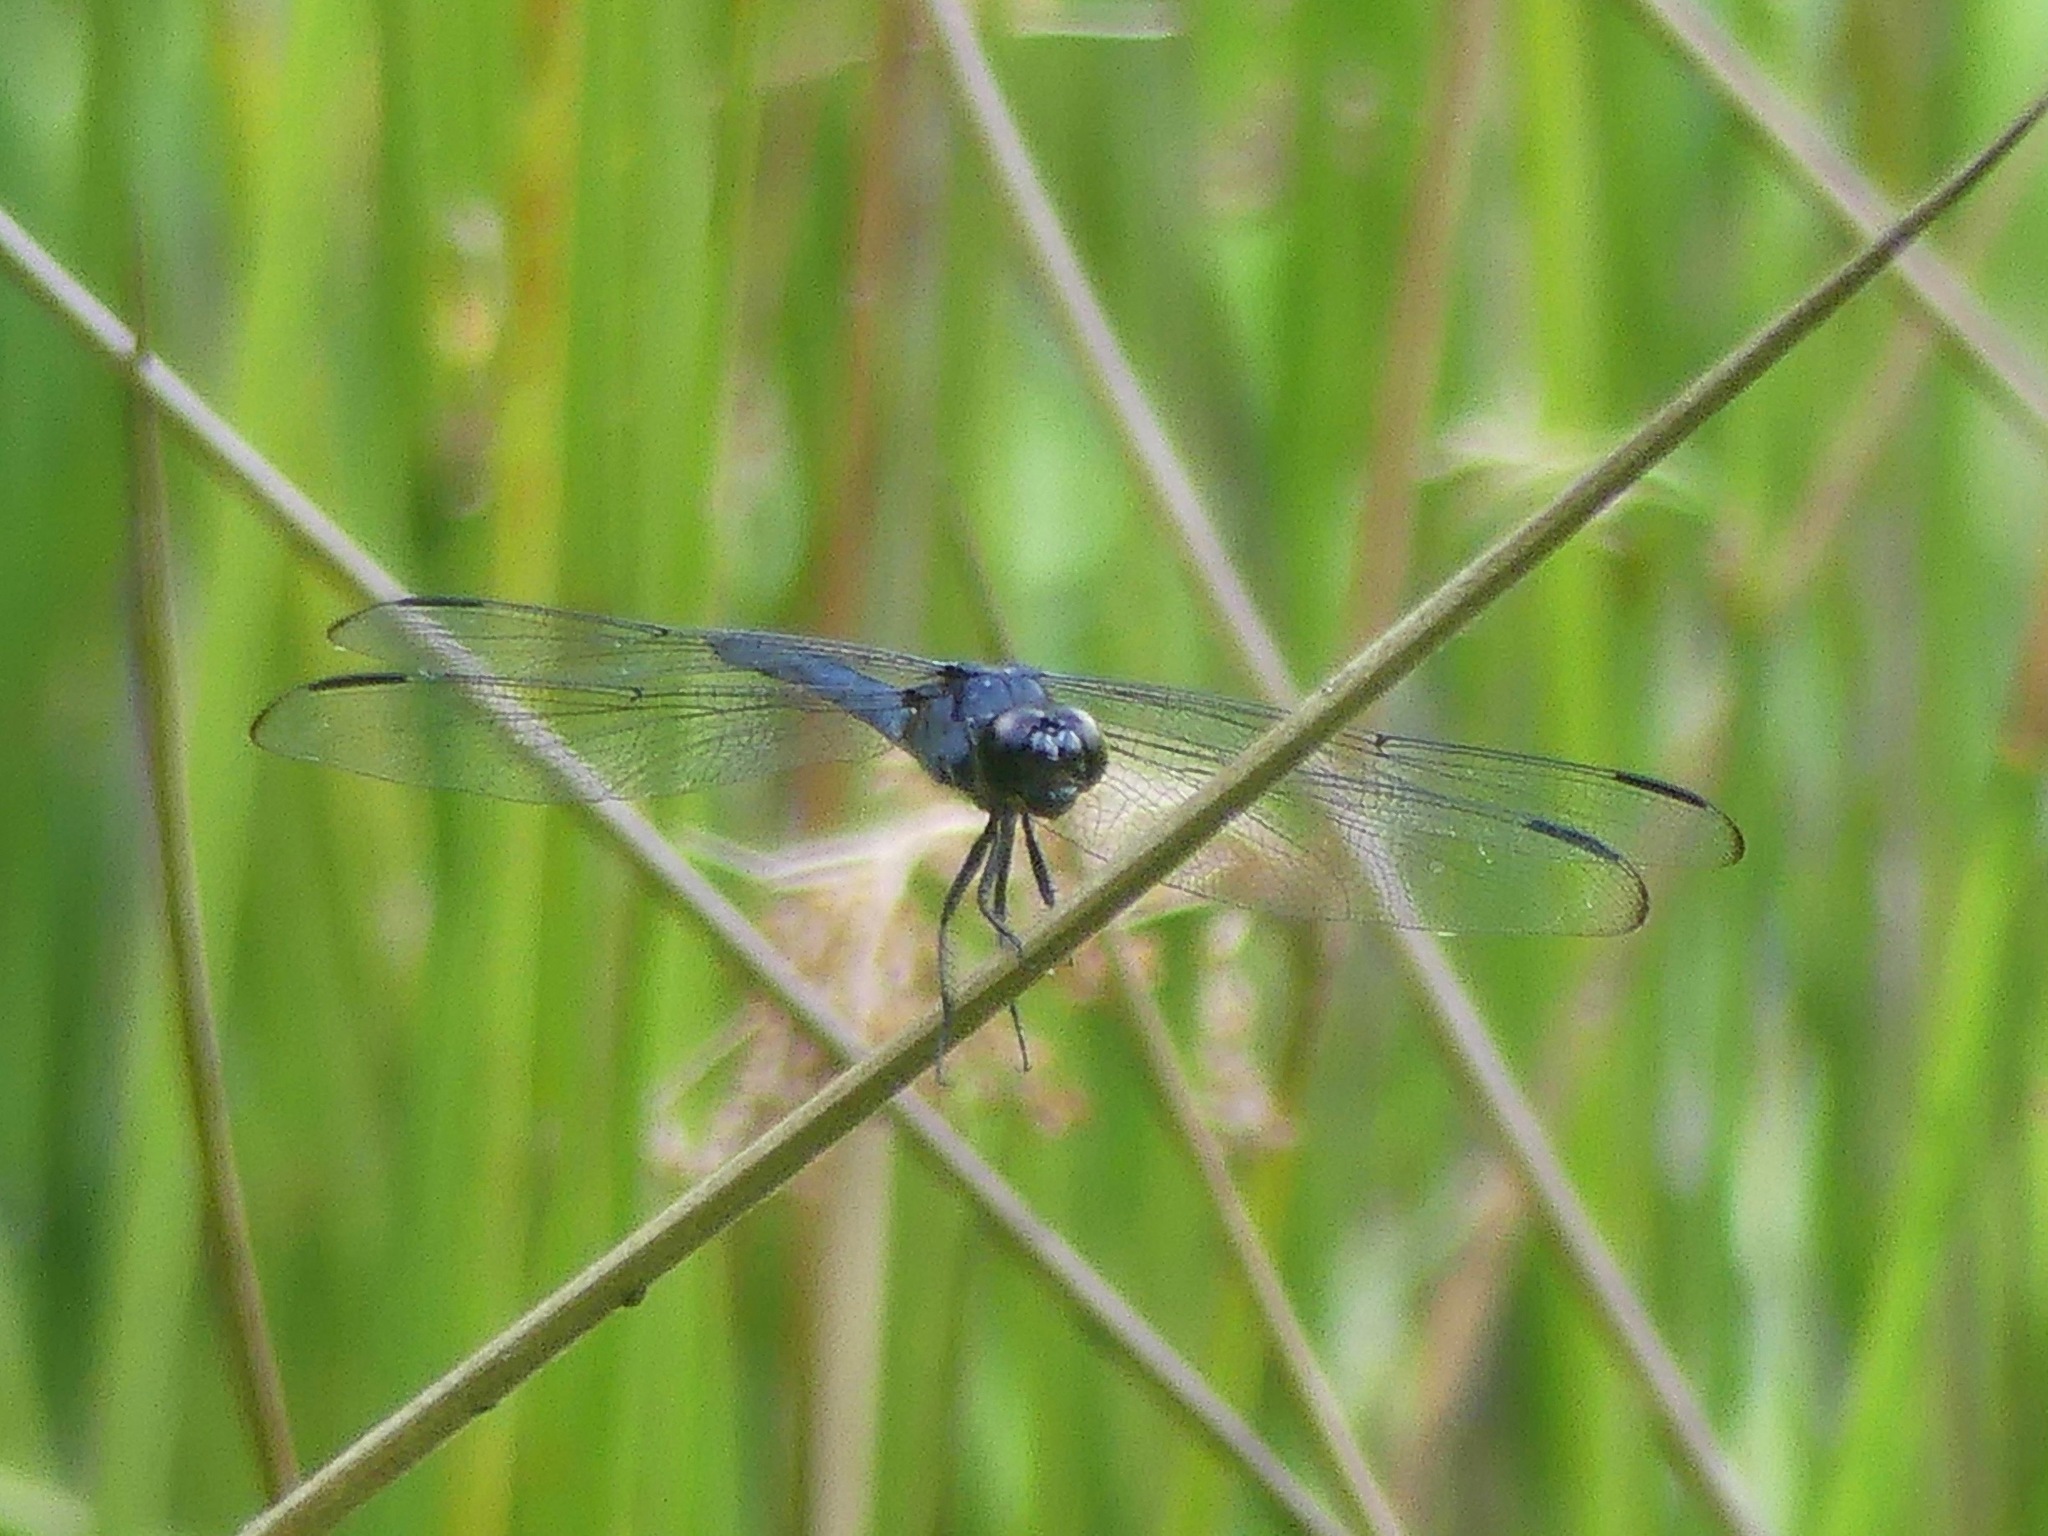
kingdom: Animalia
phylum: Arthropoda
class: Insecta
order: Odonata
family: Libellulidae
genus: Libellula
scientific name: Libellula incesta
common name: Slaty skimmer
